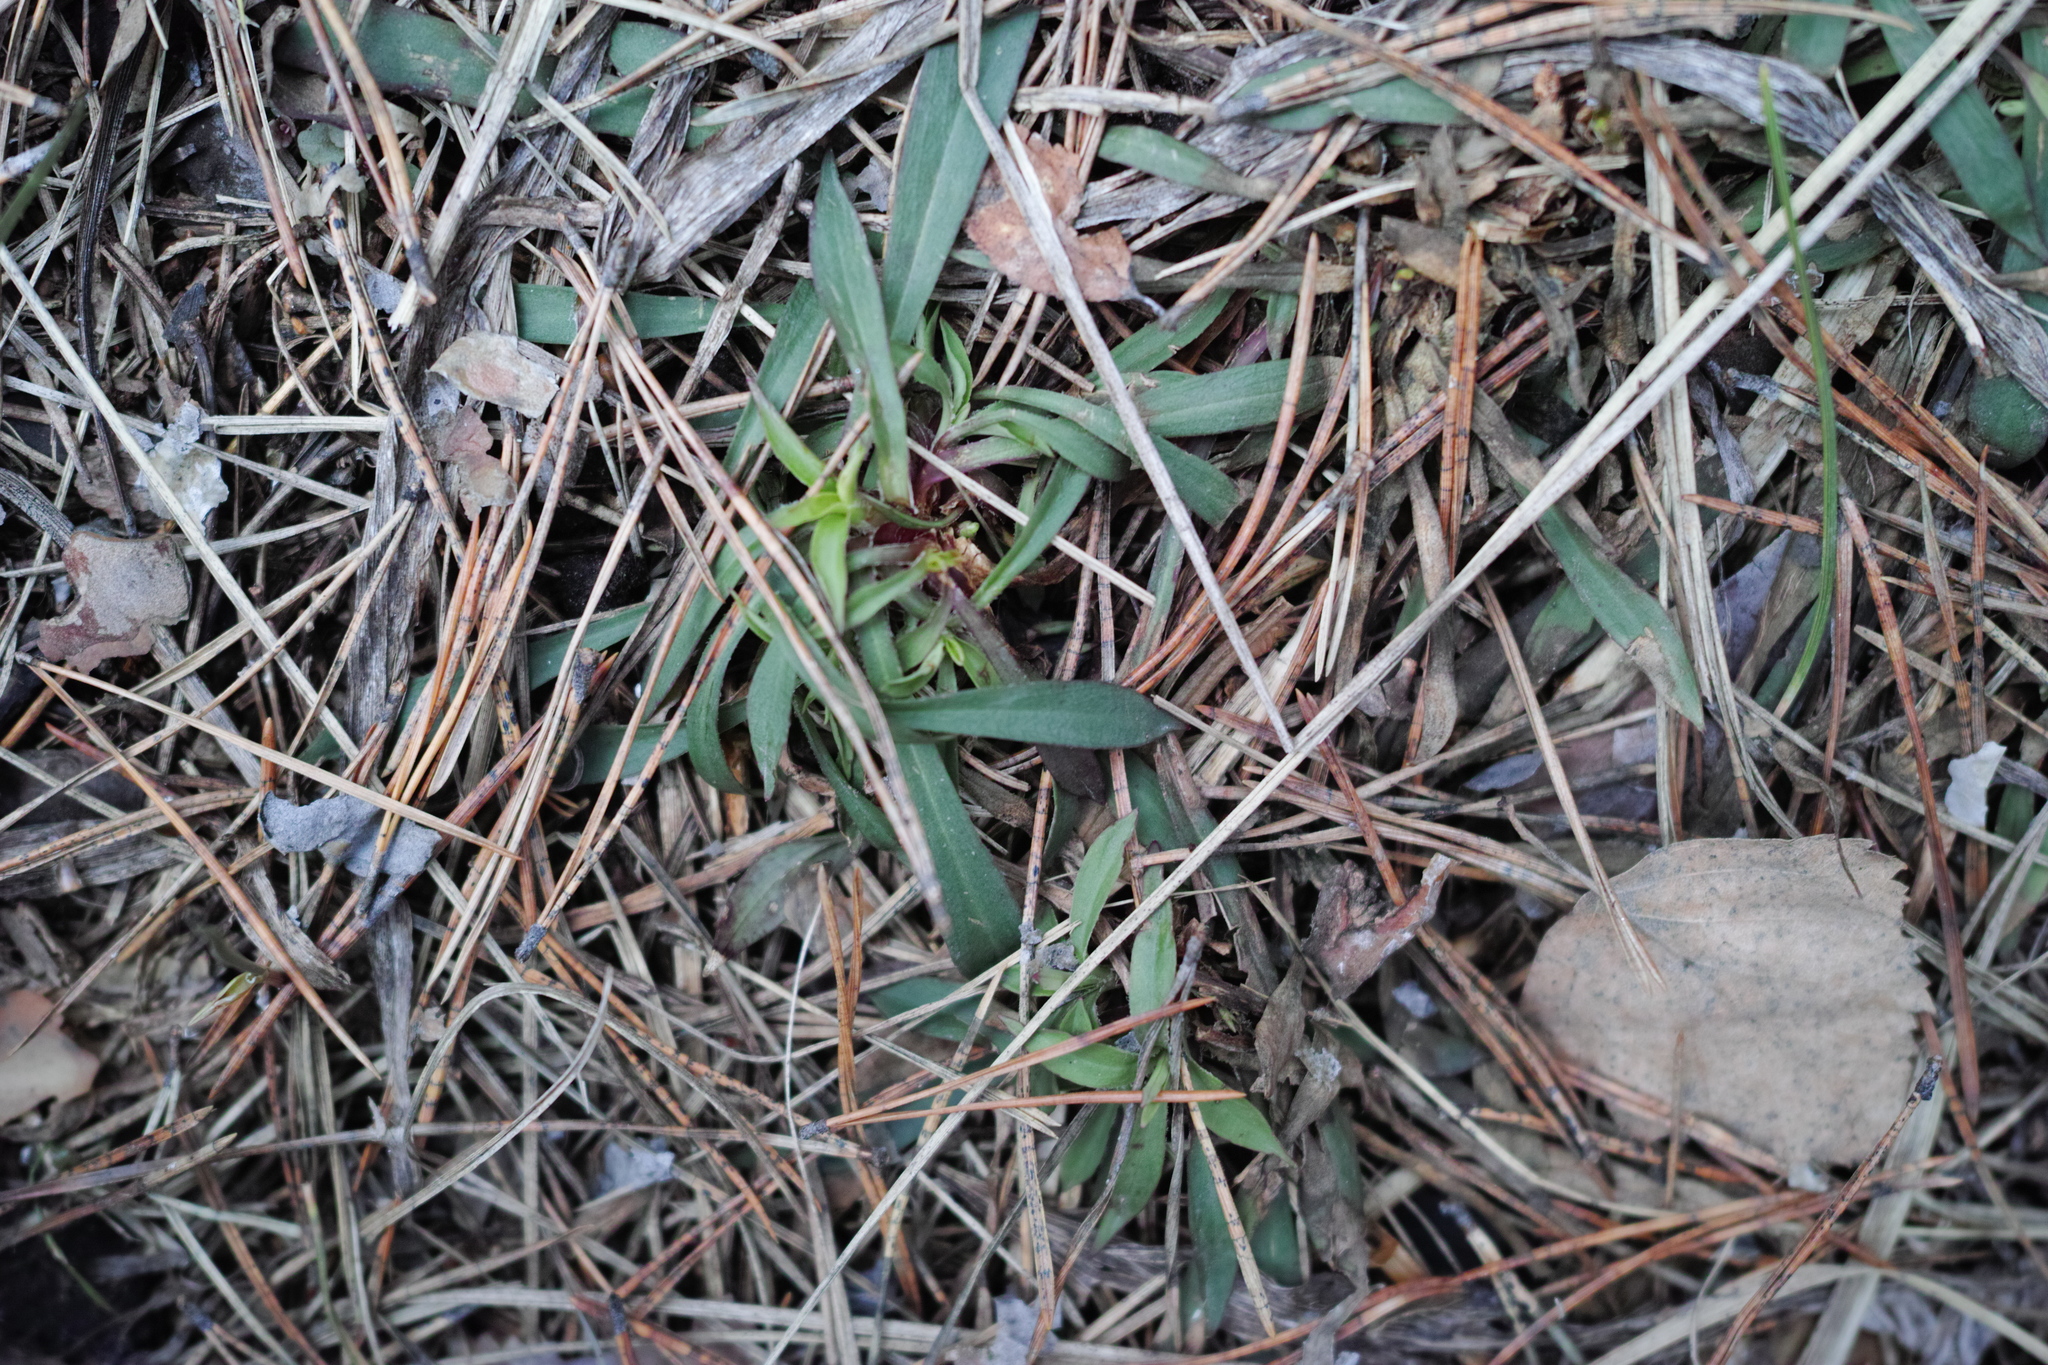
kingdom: Plantae
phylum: Tracheophyta
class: Magnoliopsida
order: Caryophyllales
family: Caryophyllaceae
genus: Viscaria
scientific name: Viscaria vulgaris
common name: Clammy campion
